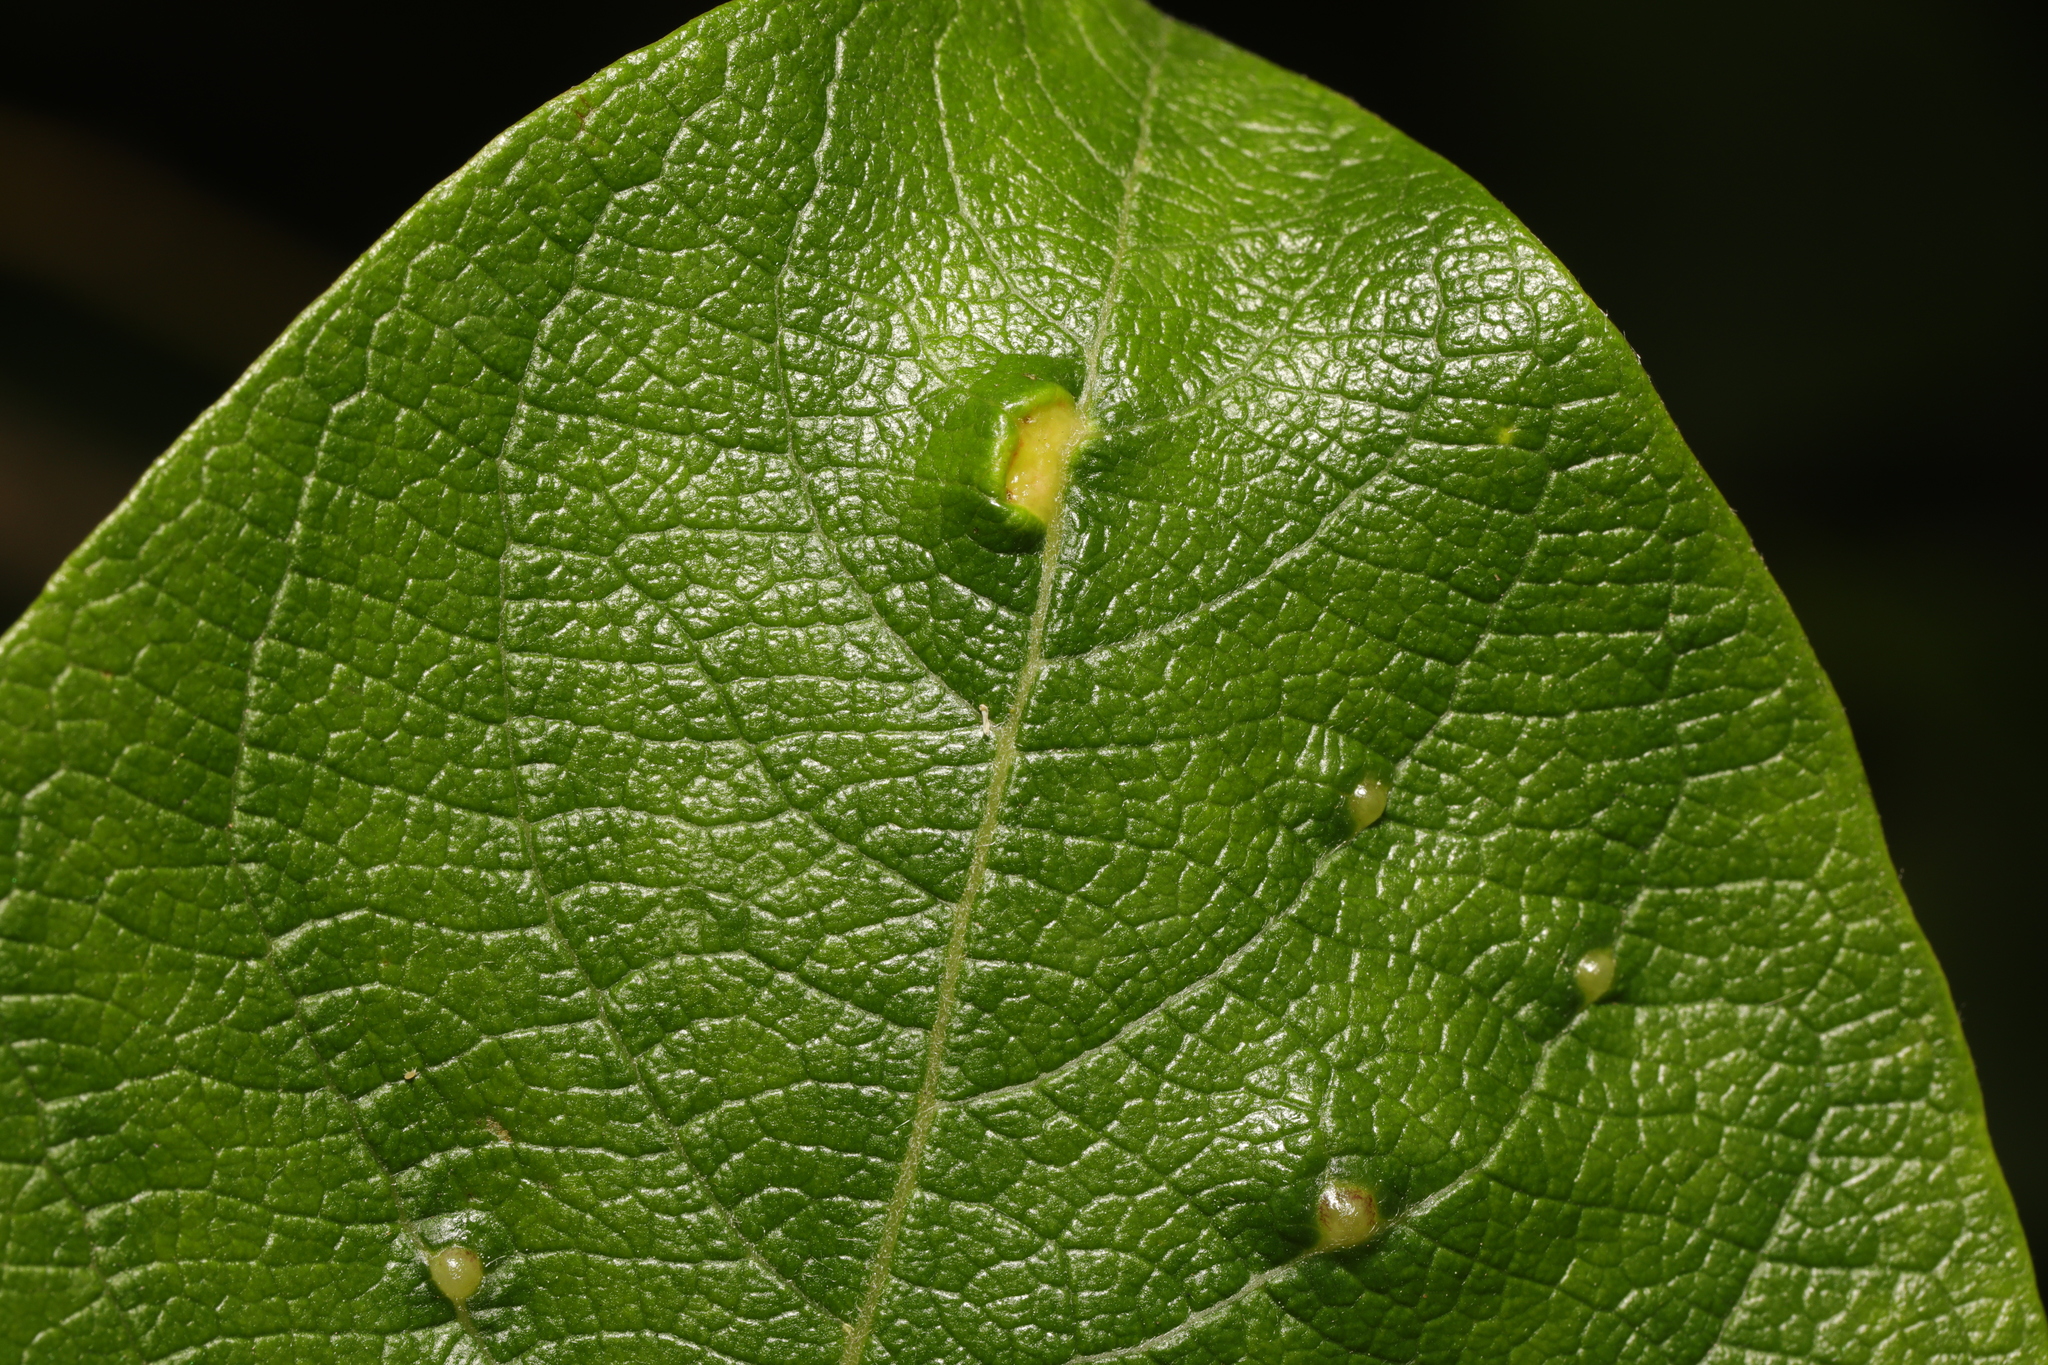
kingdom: Animalia
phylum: Arthropoda
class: Insecta
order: Diptera
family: Cecidomyiidae
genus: Iteomyia
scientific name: Iteomyia capreae
